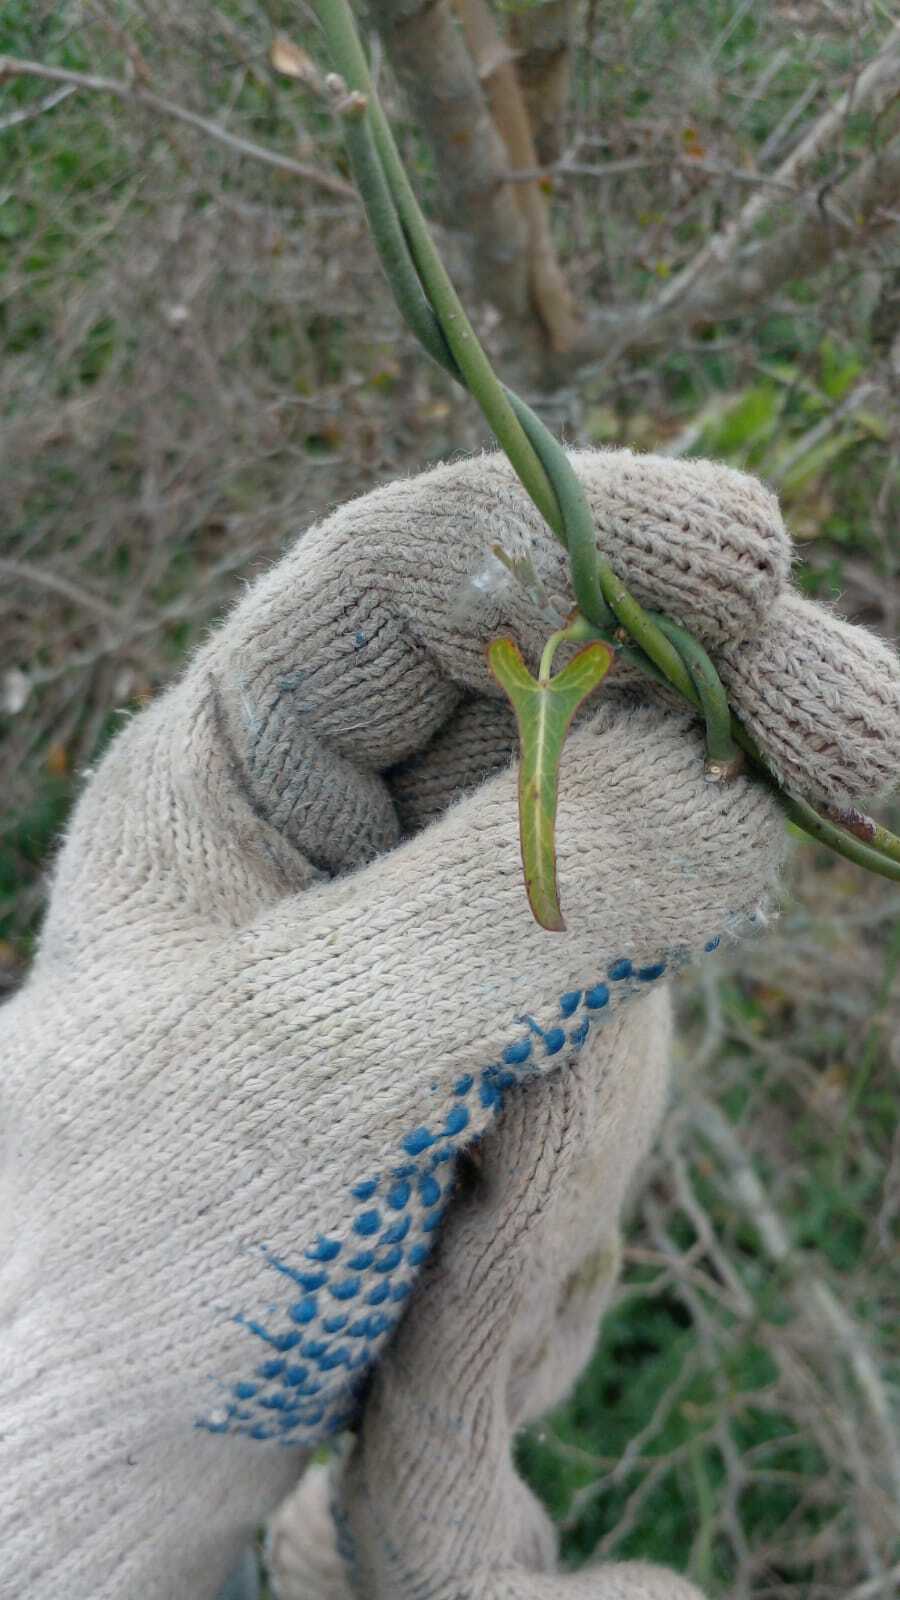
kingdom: Plantae
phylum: Tracheophyta
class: Magnoliopsida
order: Gentianales
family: Apocynaceae
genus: Araujia
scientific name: Araujia angustifolia
